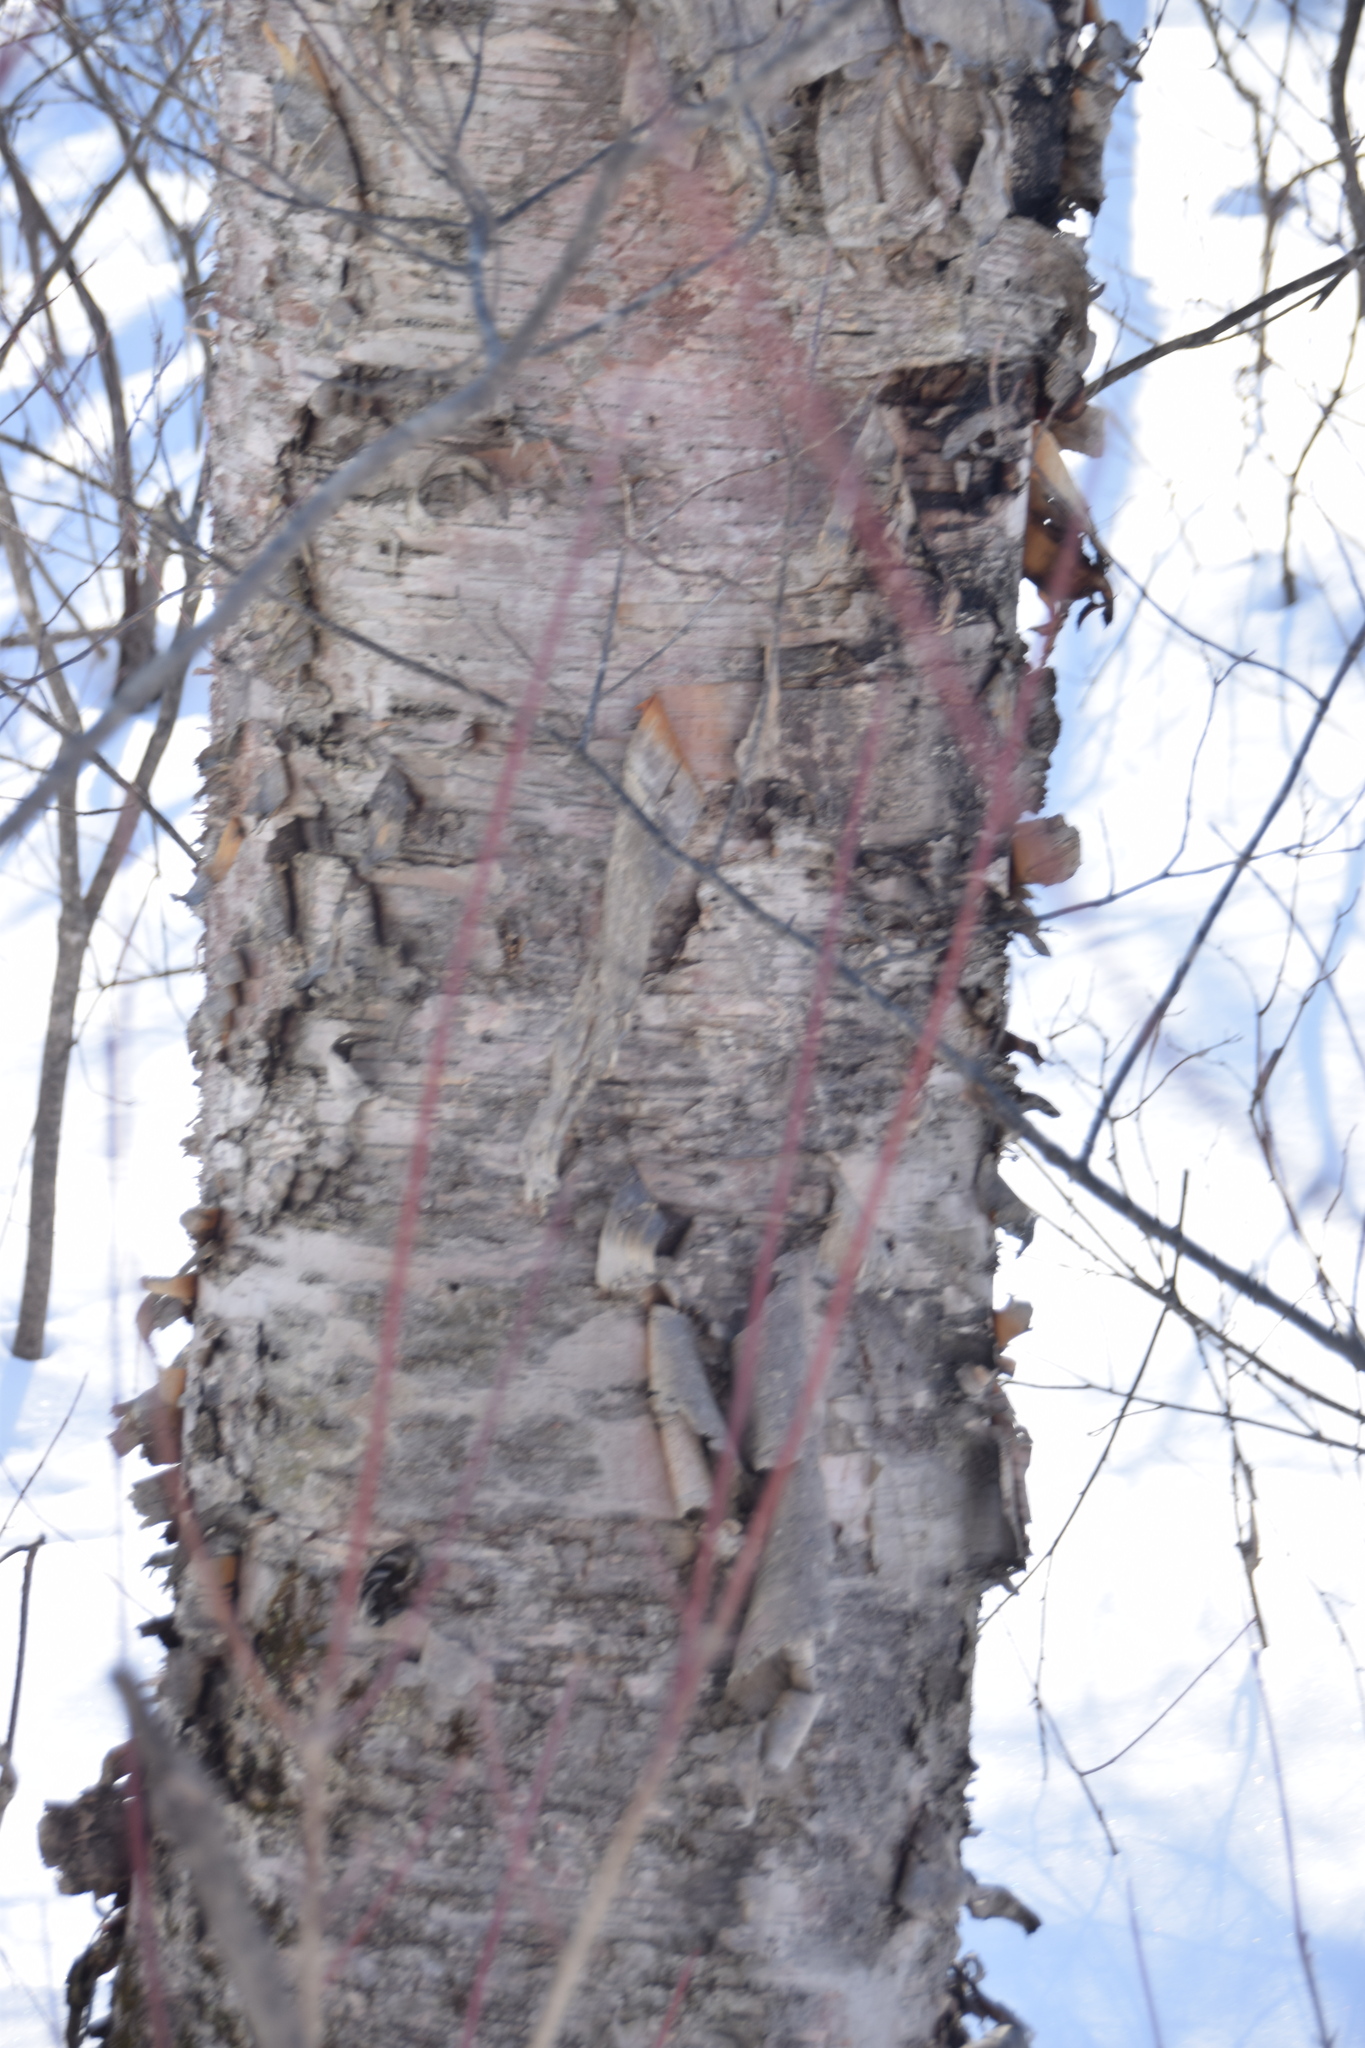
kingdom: Plantae
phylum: Tracheophyta
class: Magnoliopsida
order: Fagales
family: Betulaceae
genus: Betula
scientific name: Betula papyrifera
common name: Paper birch
